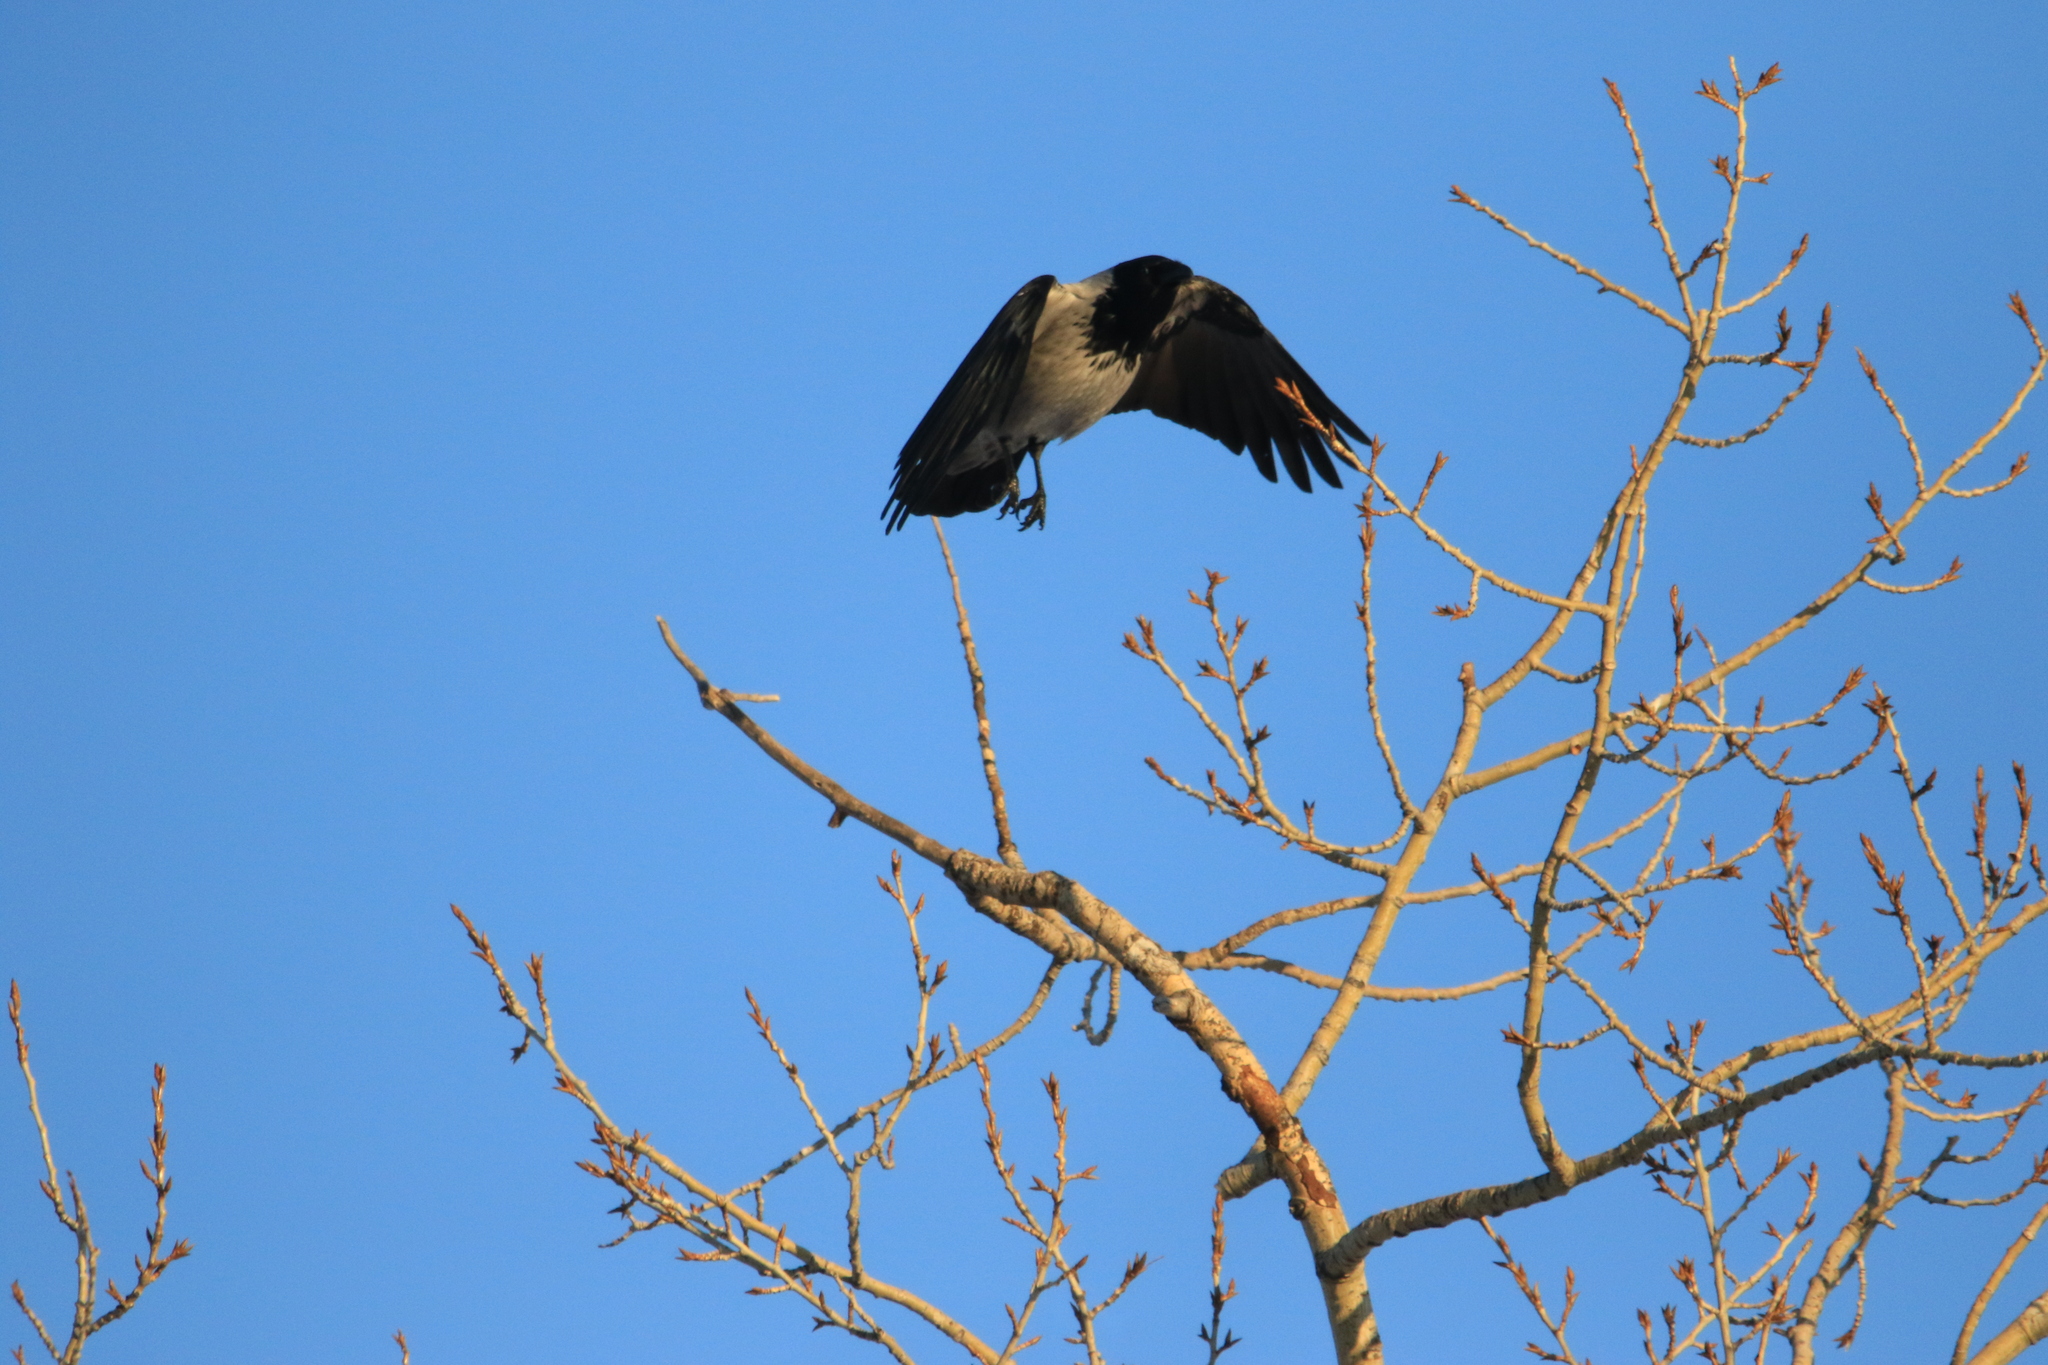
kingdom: Animalia
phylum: Chordata
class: Aves
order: Passeriformes
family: Corvidae
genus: Corvus
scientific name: Corvus cornix
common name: Hooded crow
